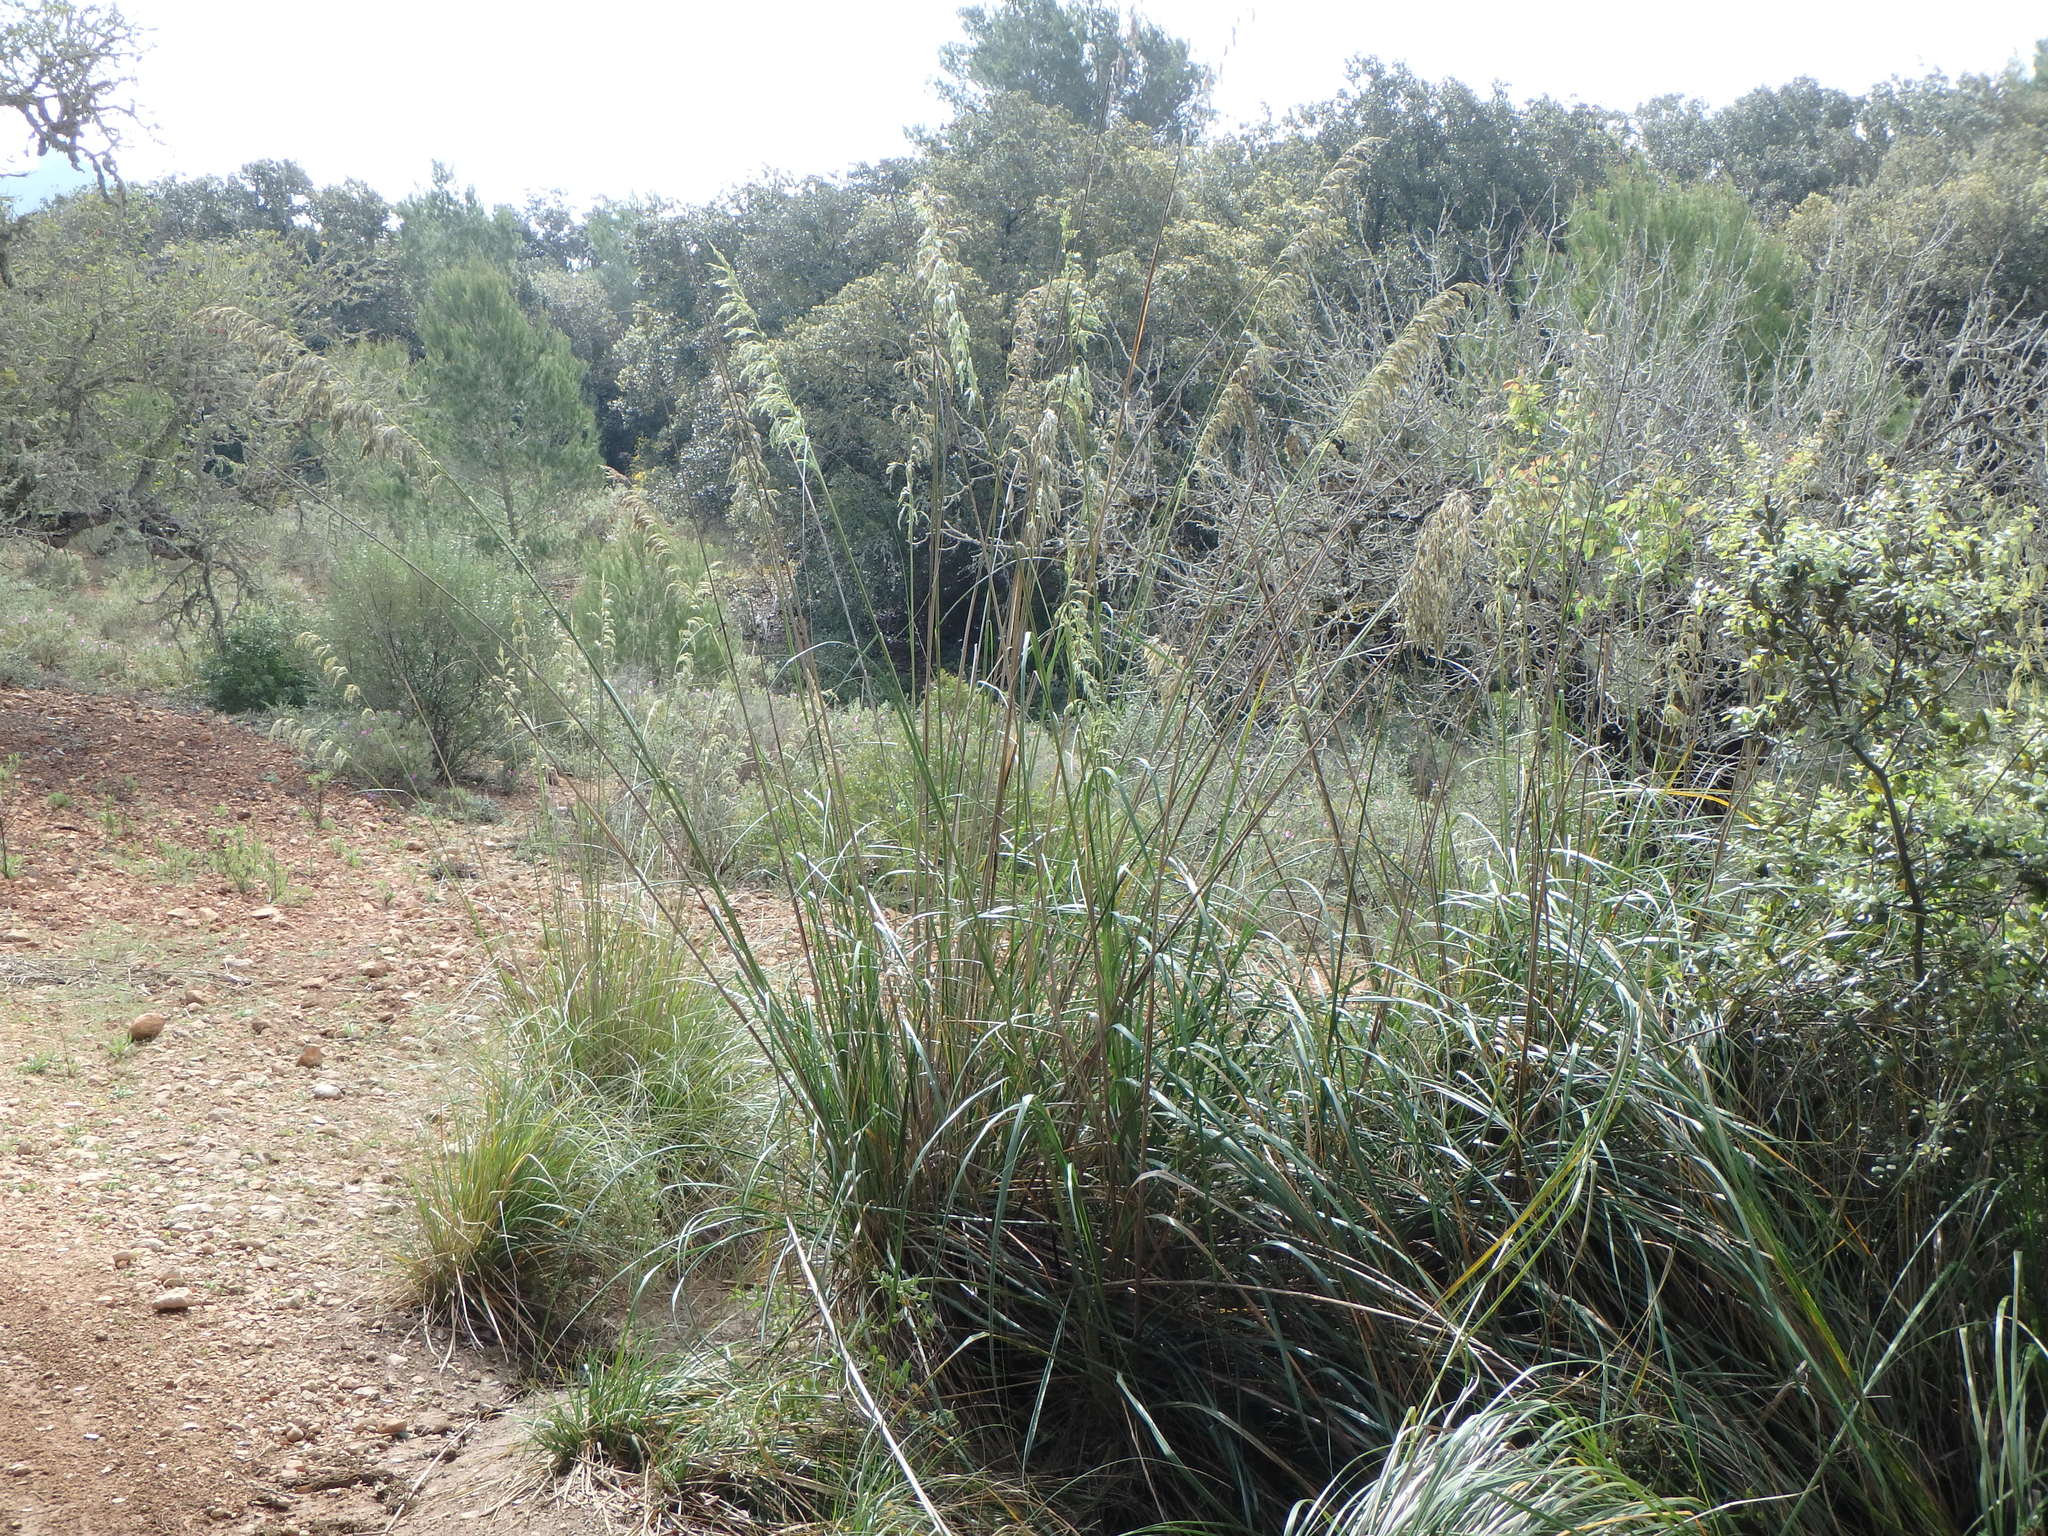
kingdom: Plantae
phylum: Tracheophyta
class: Liliopsida
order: Poales
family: Poaceae
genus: Ampelodesmos
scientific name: Ampelodesmos mauritanicus
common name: Mauritanian grass
